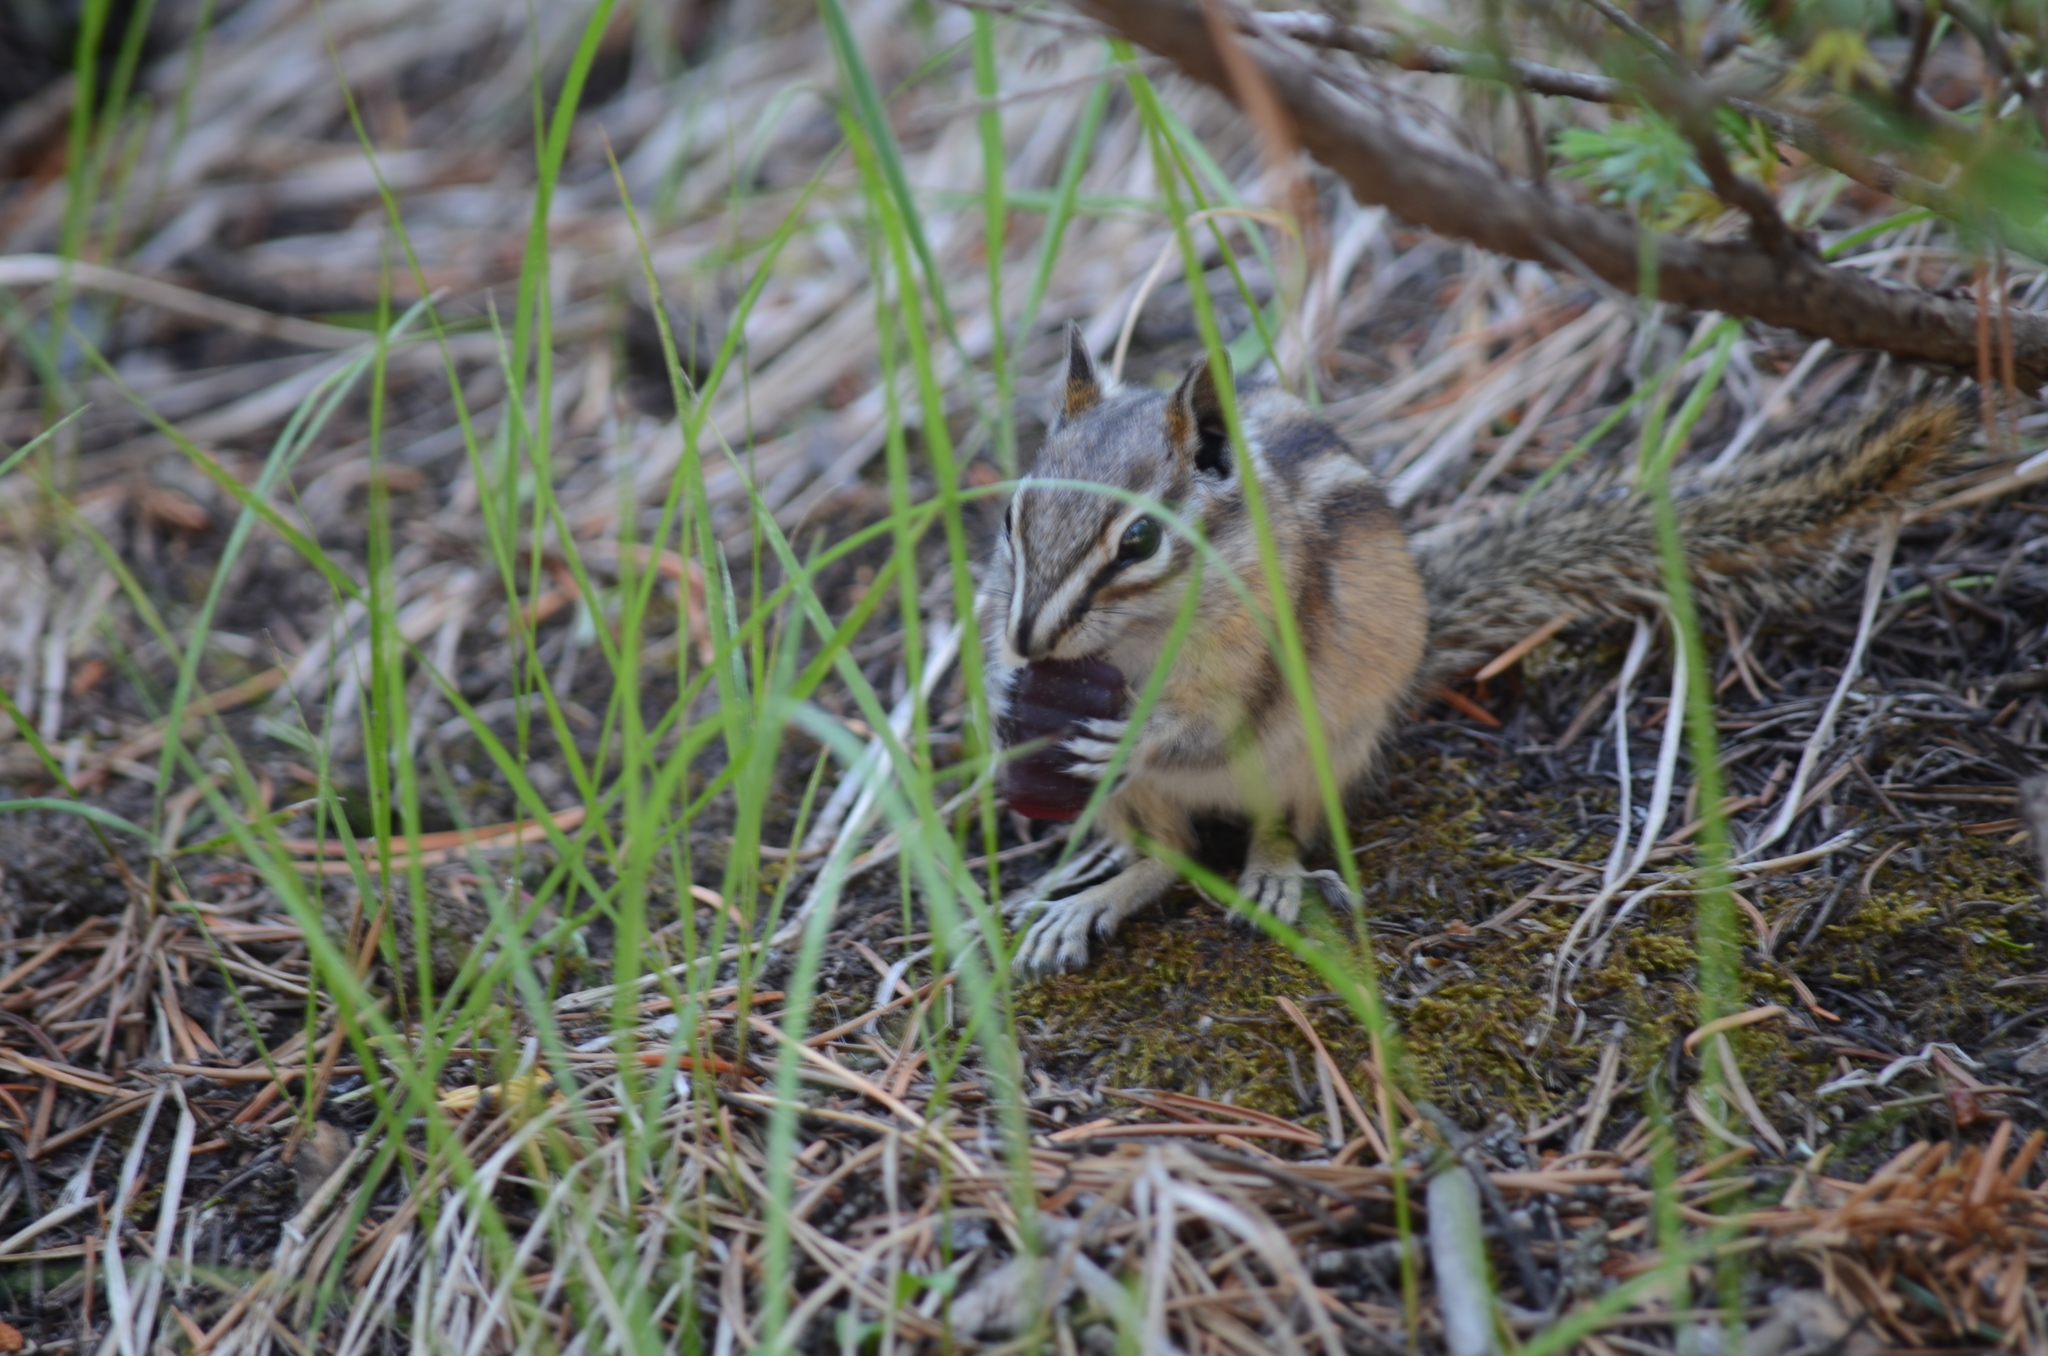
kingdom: Animalia
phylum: Chordata
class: Mammalia
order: Rodentia
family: Sciuridae
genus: Tamias
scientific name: Tamias minimus
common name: Least chipmunk
